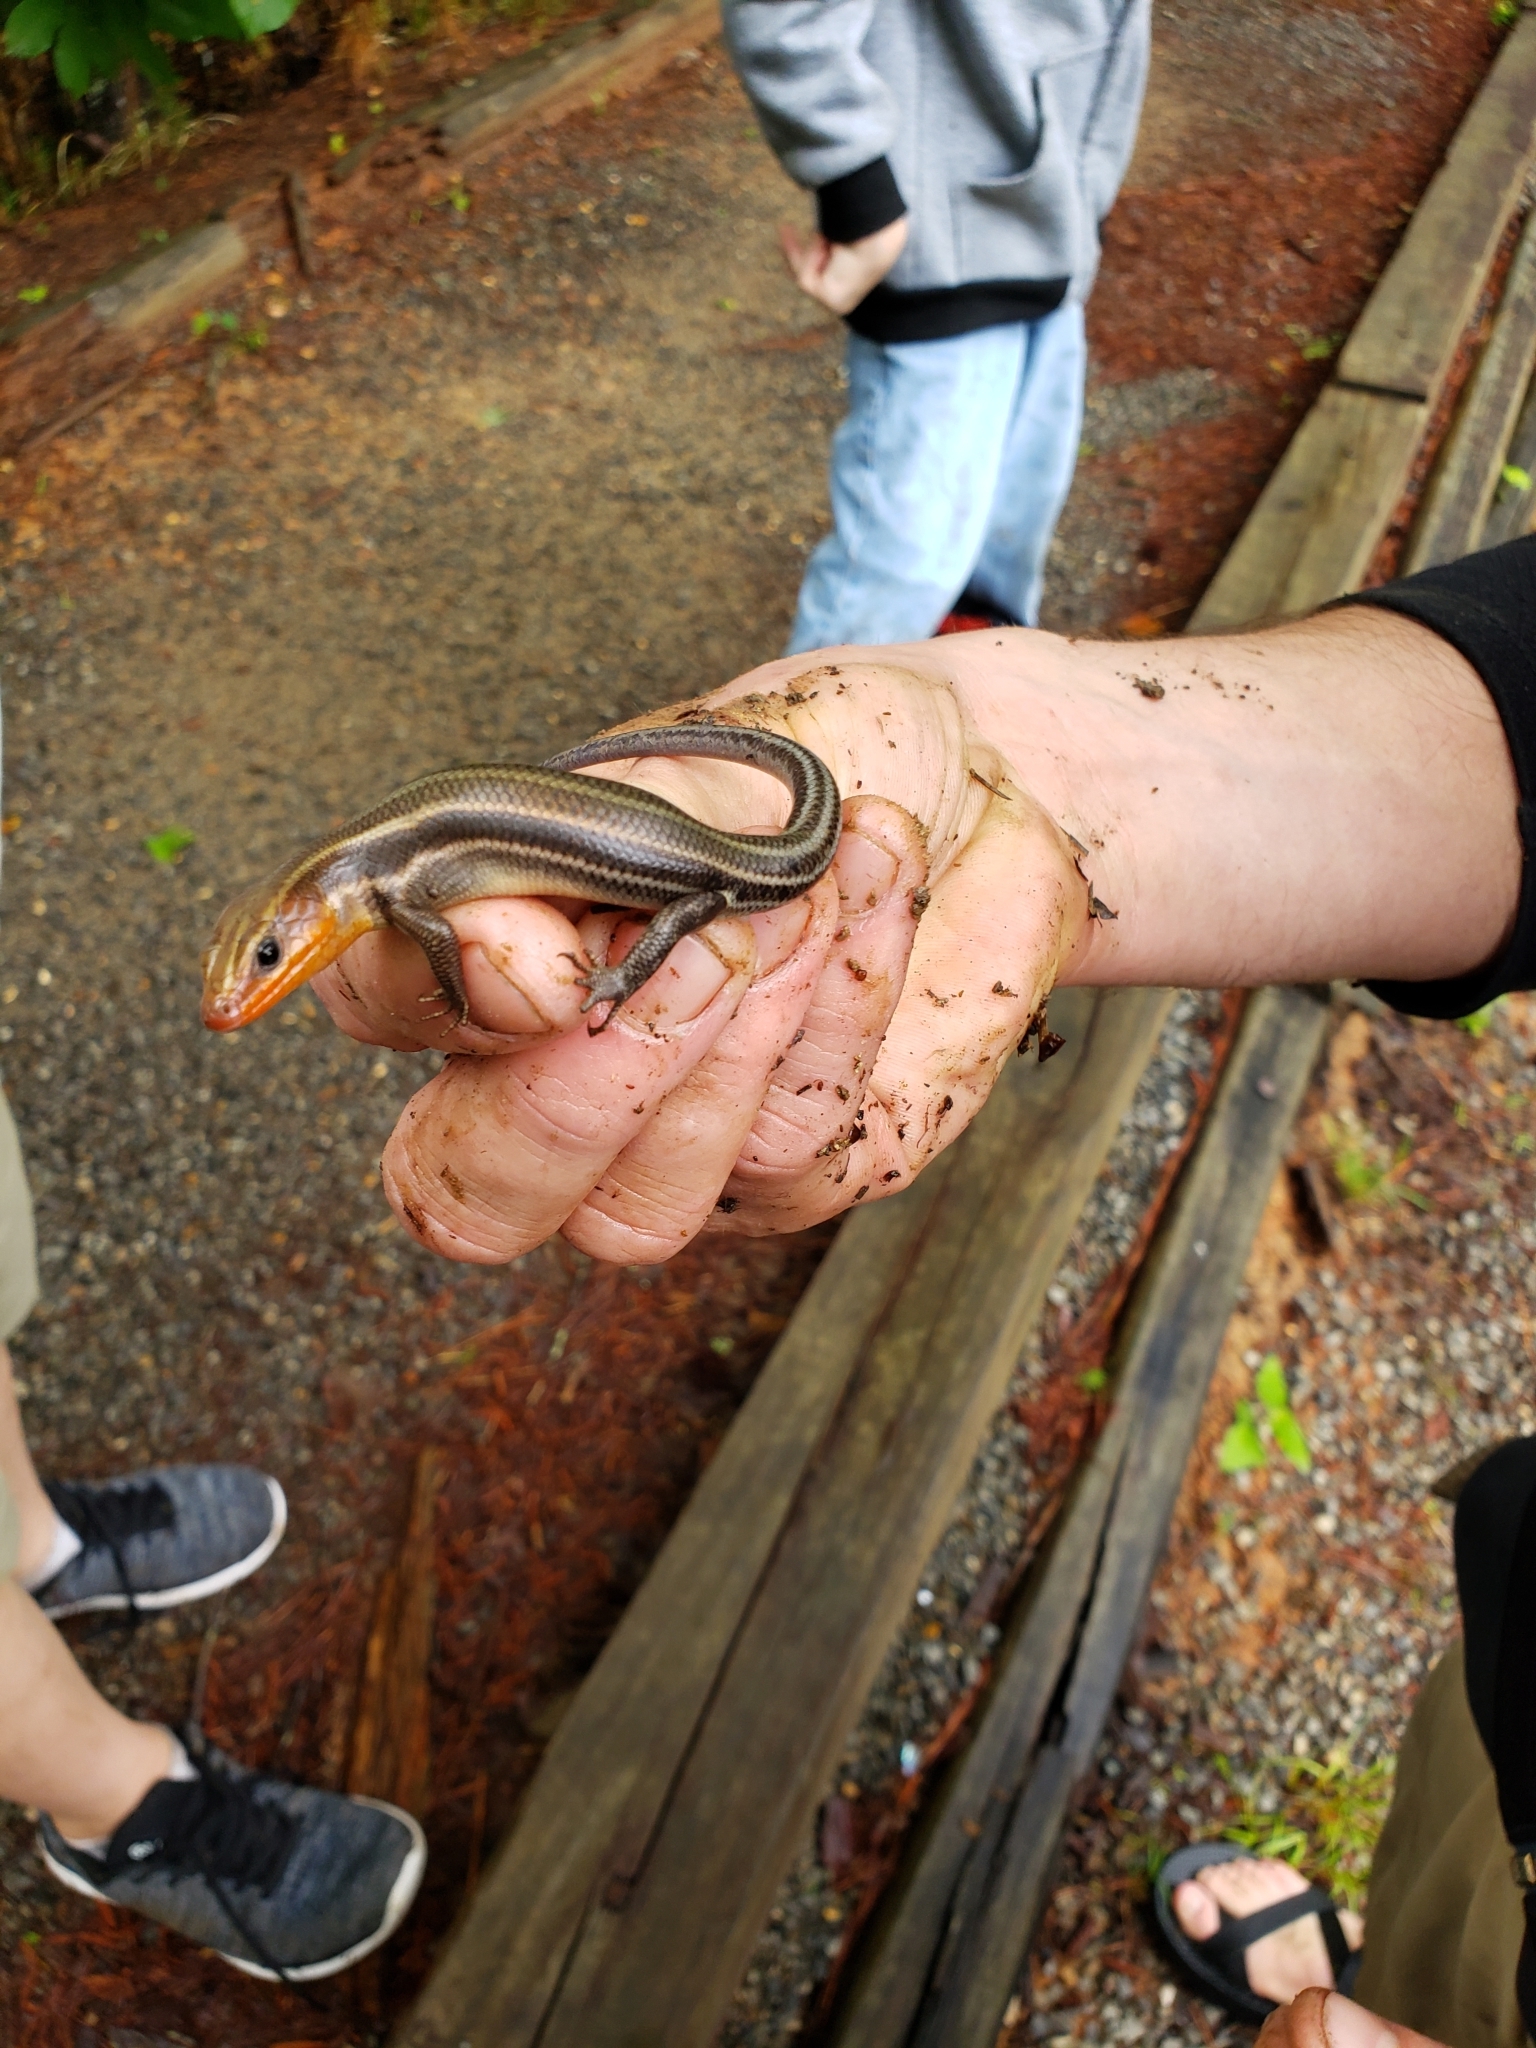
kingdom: Animalia
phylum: Chordata
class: Squamata
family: Scincidae
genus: Plestiodon
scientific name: Plestiodon fasciatus
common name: Five-lined skink
